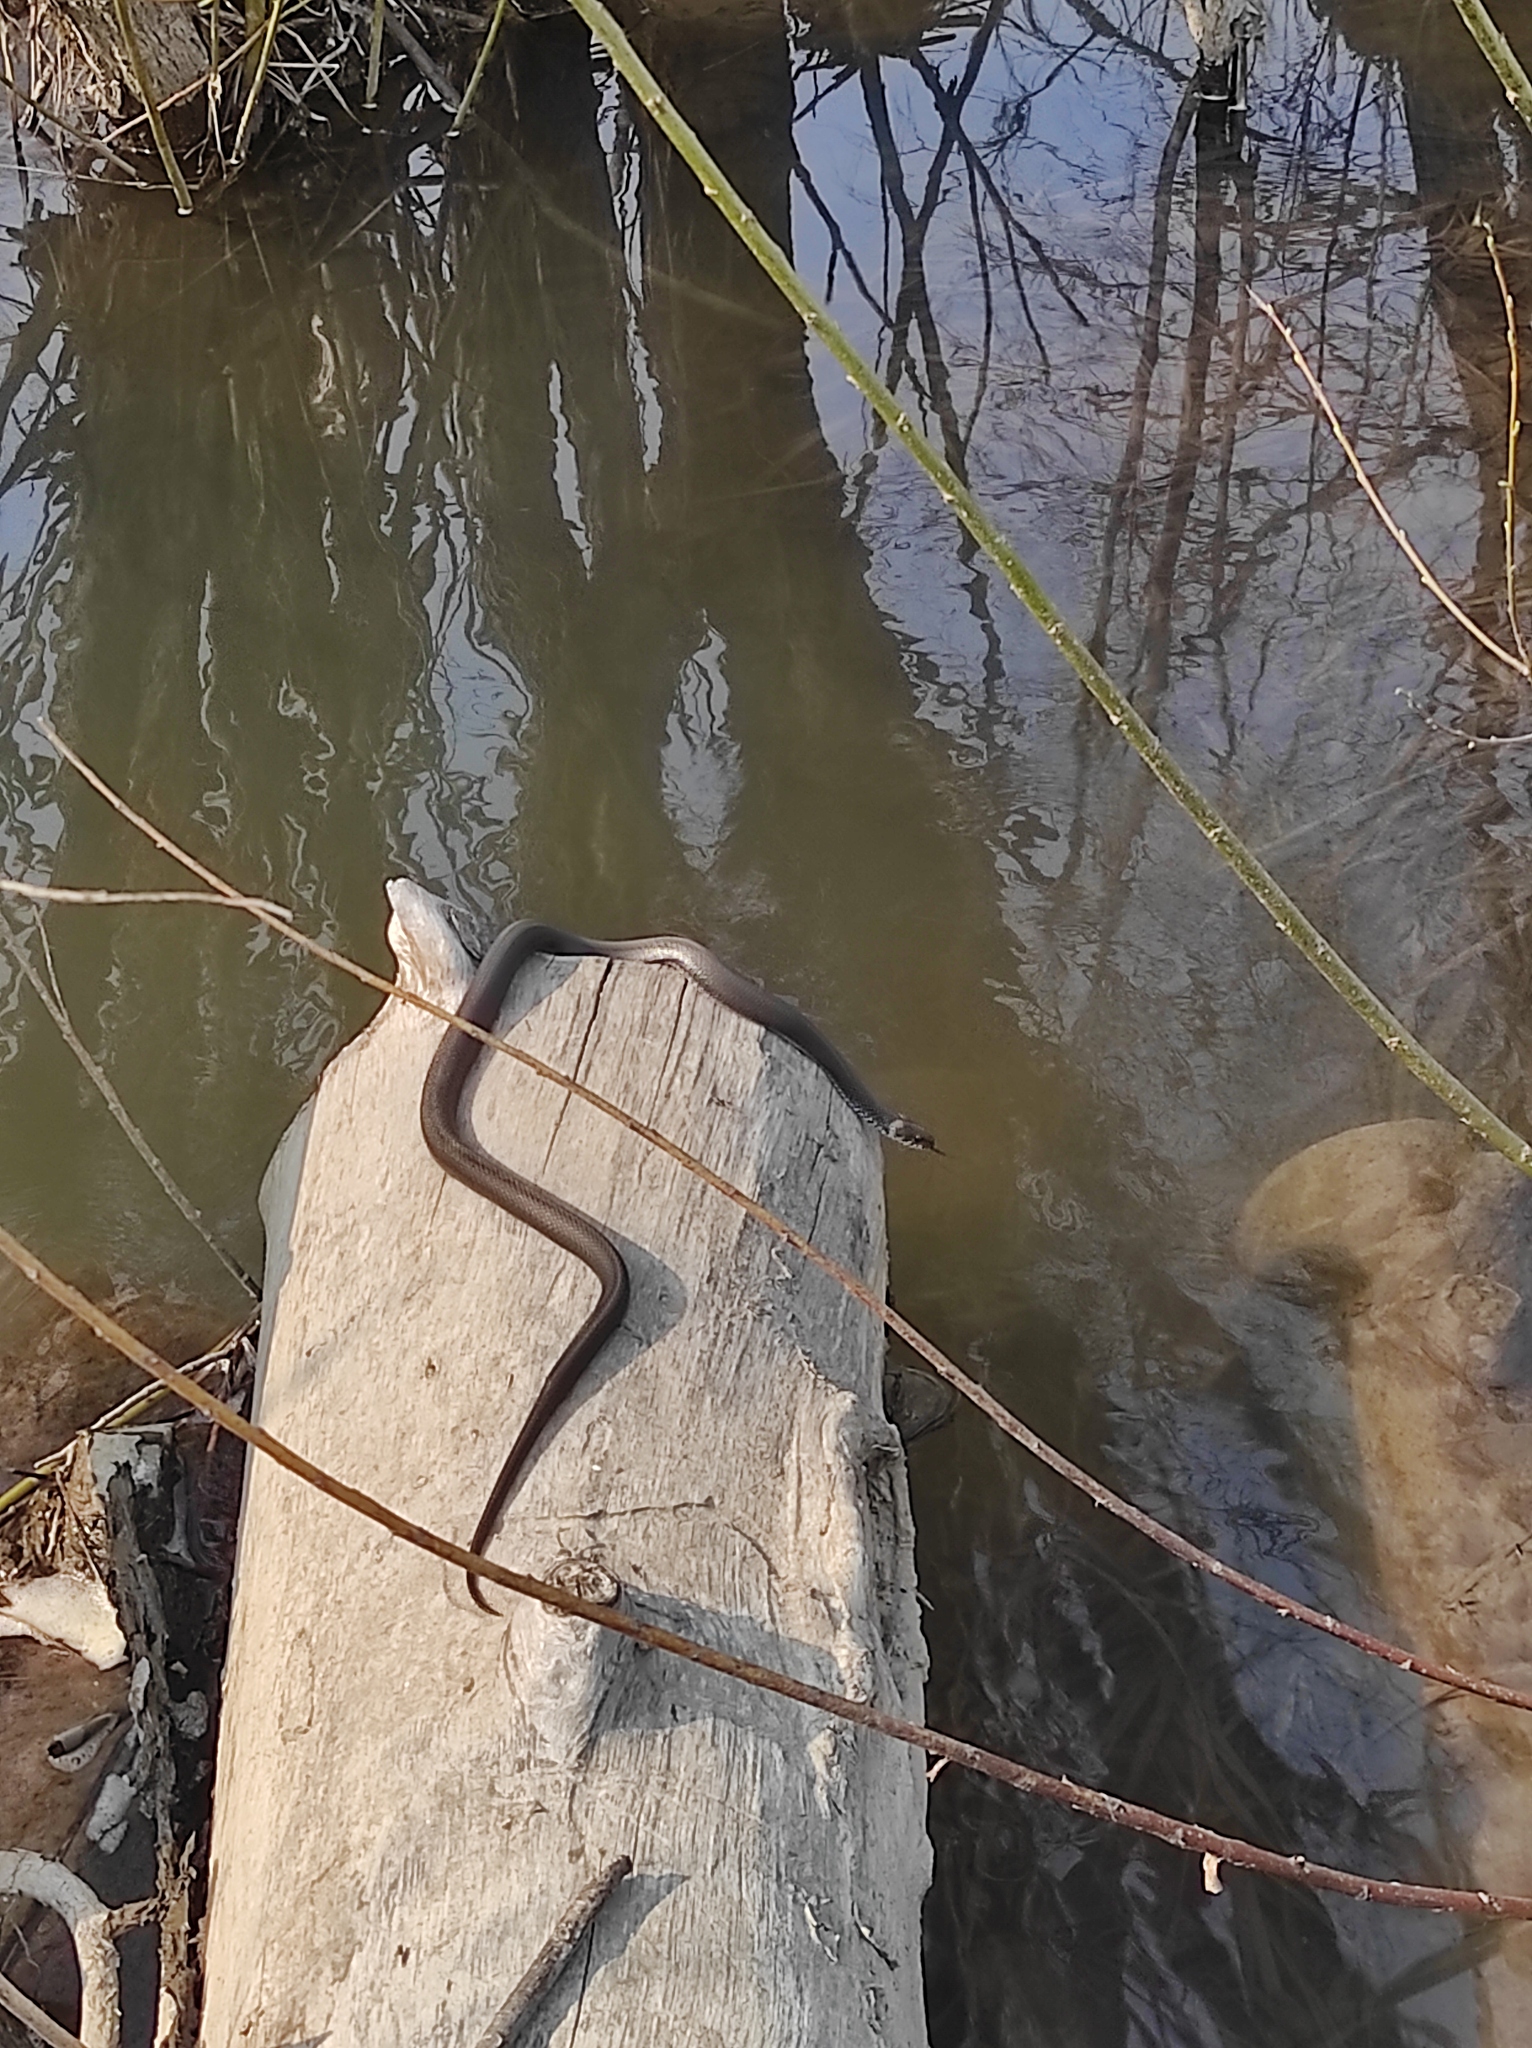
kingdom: Animalia
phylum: Chordata
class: Squamata
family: Colubridae
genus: Natrix
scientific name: Natrix natrix
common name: Grass snake
